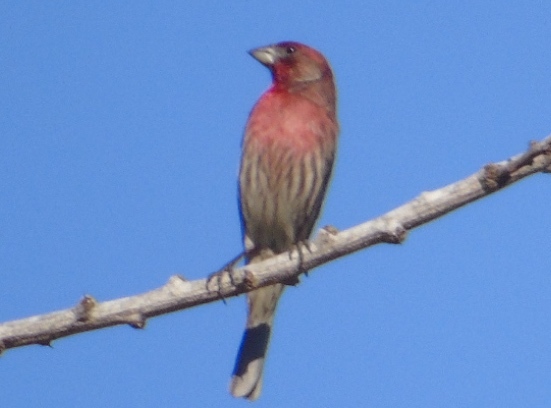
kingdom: Animalia
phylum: Chordata
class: Aves
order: Passeriformes
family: Fringillidae
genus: Haemorhous
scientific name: Haemorhous mexicanus
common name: House finch
